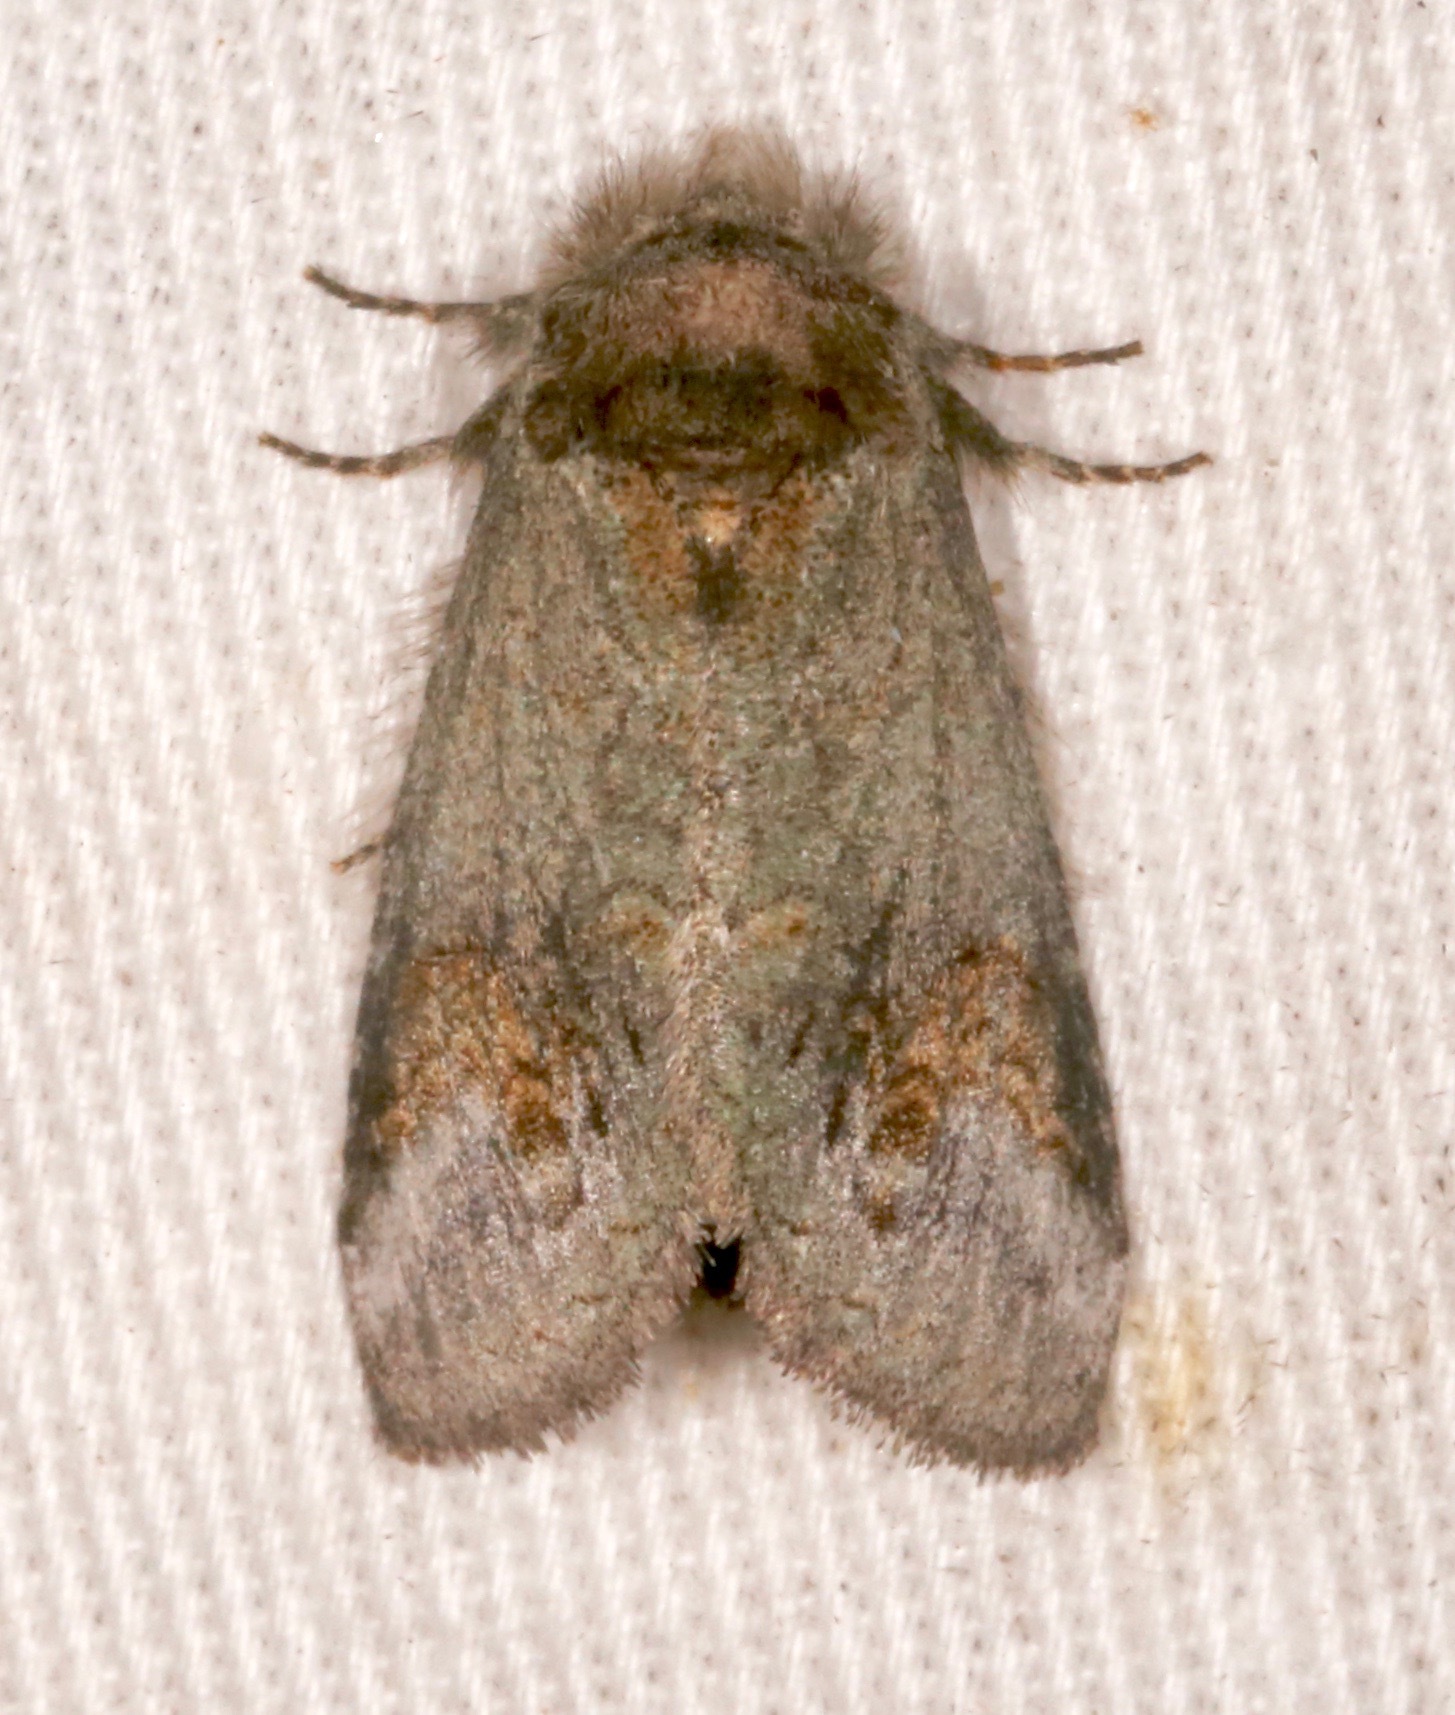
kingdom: Animalia
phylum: Arthropoda
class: Insecta
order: Lepidoptera
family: Notodontidae
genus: Rifargia
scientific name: Rifargia
